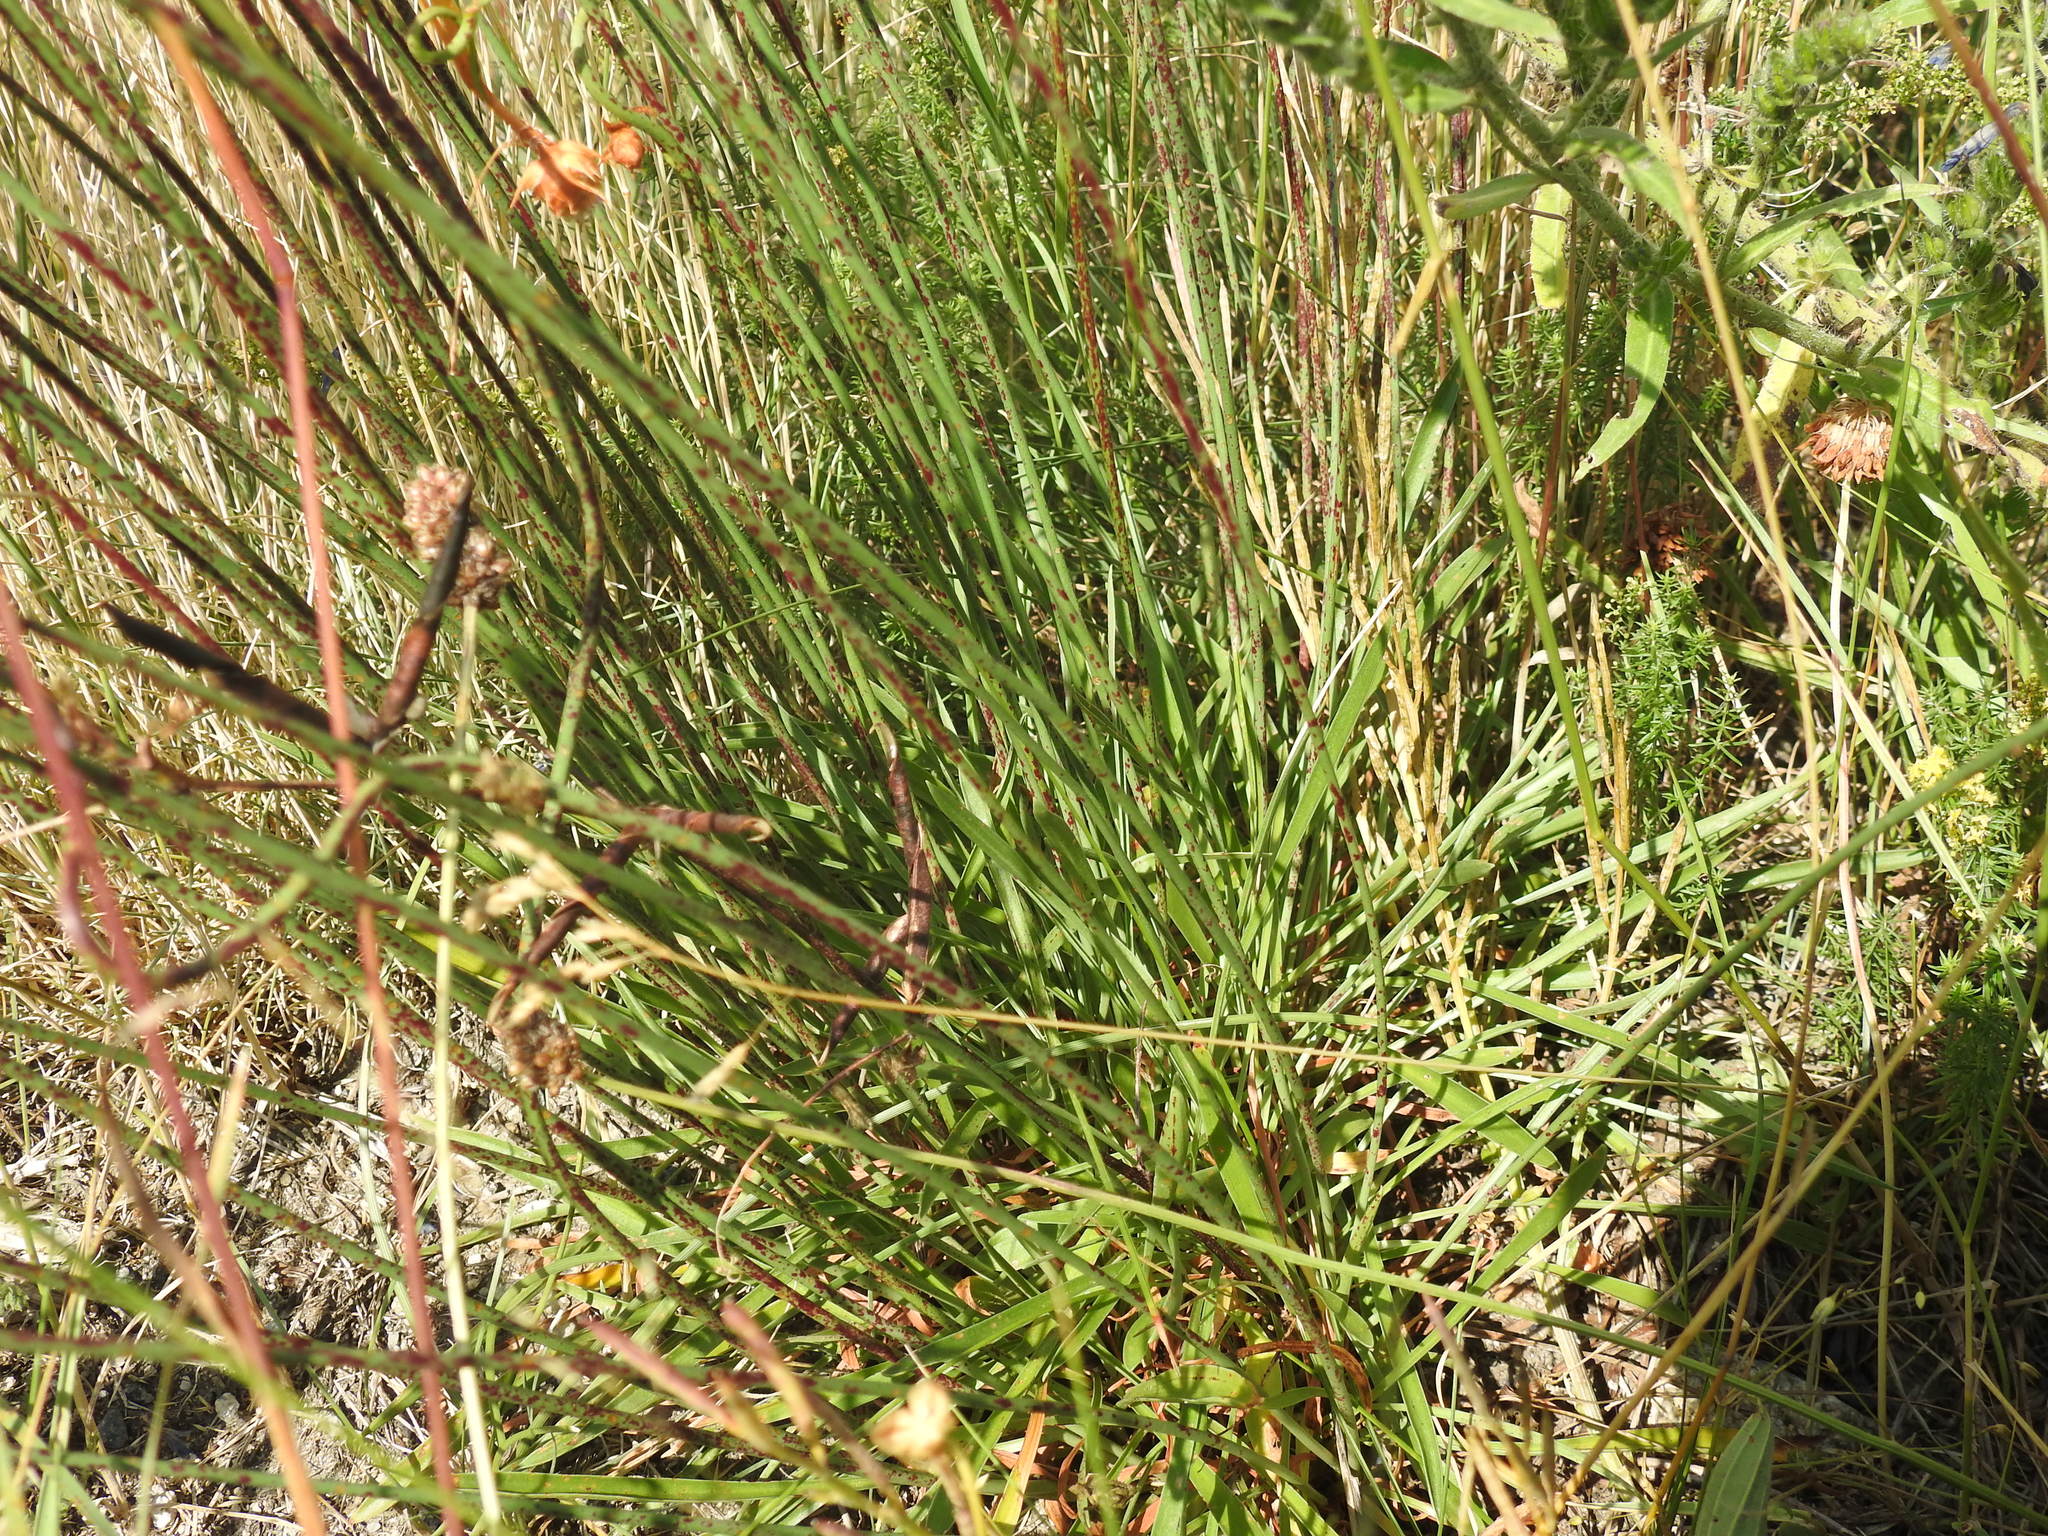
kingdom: Plantae
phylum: Tracheophyta
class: Magnoliopsida
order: Caryophyllales
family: Plumbaginaceae
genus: Armeria
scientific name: Armeria arenaria
